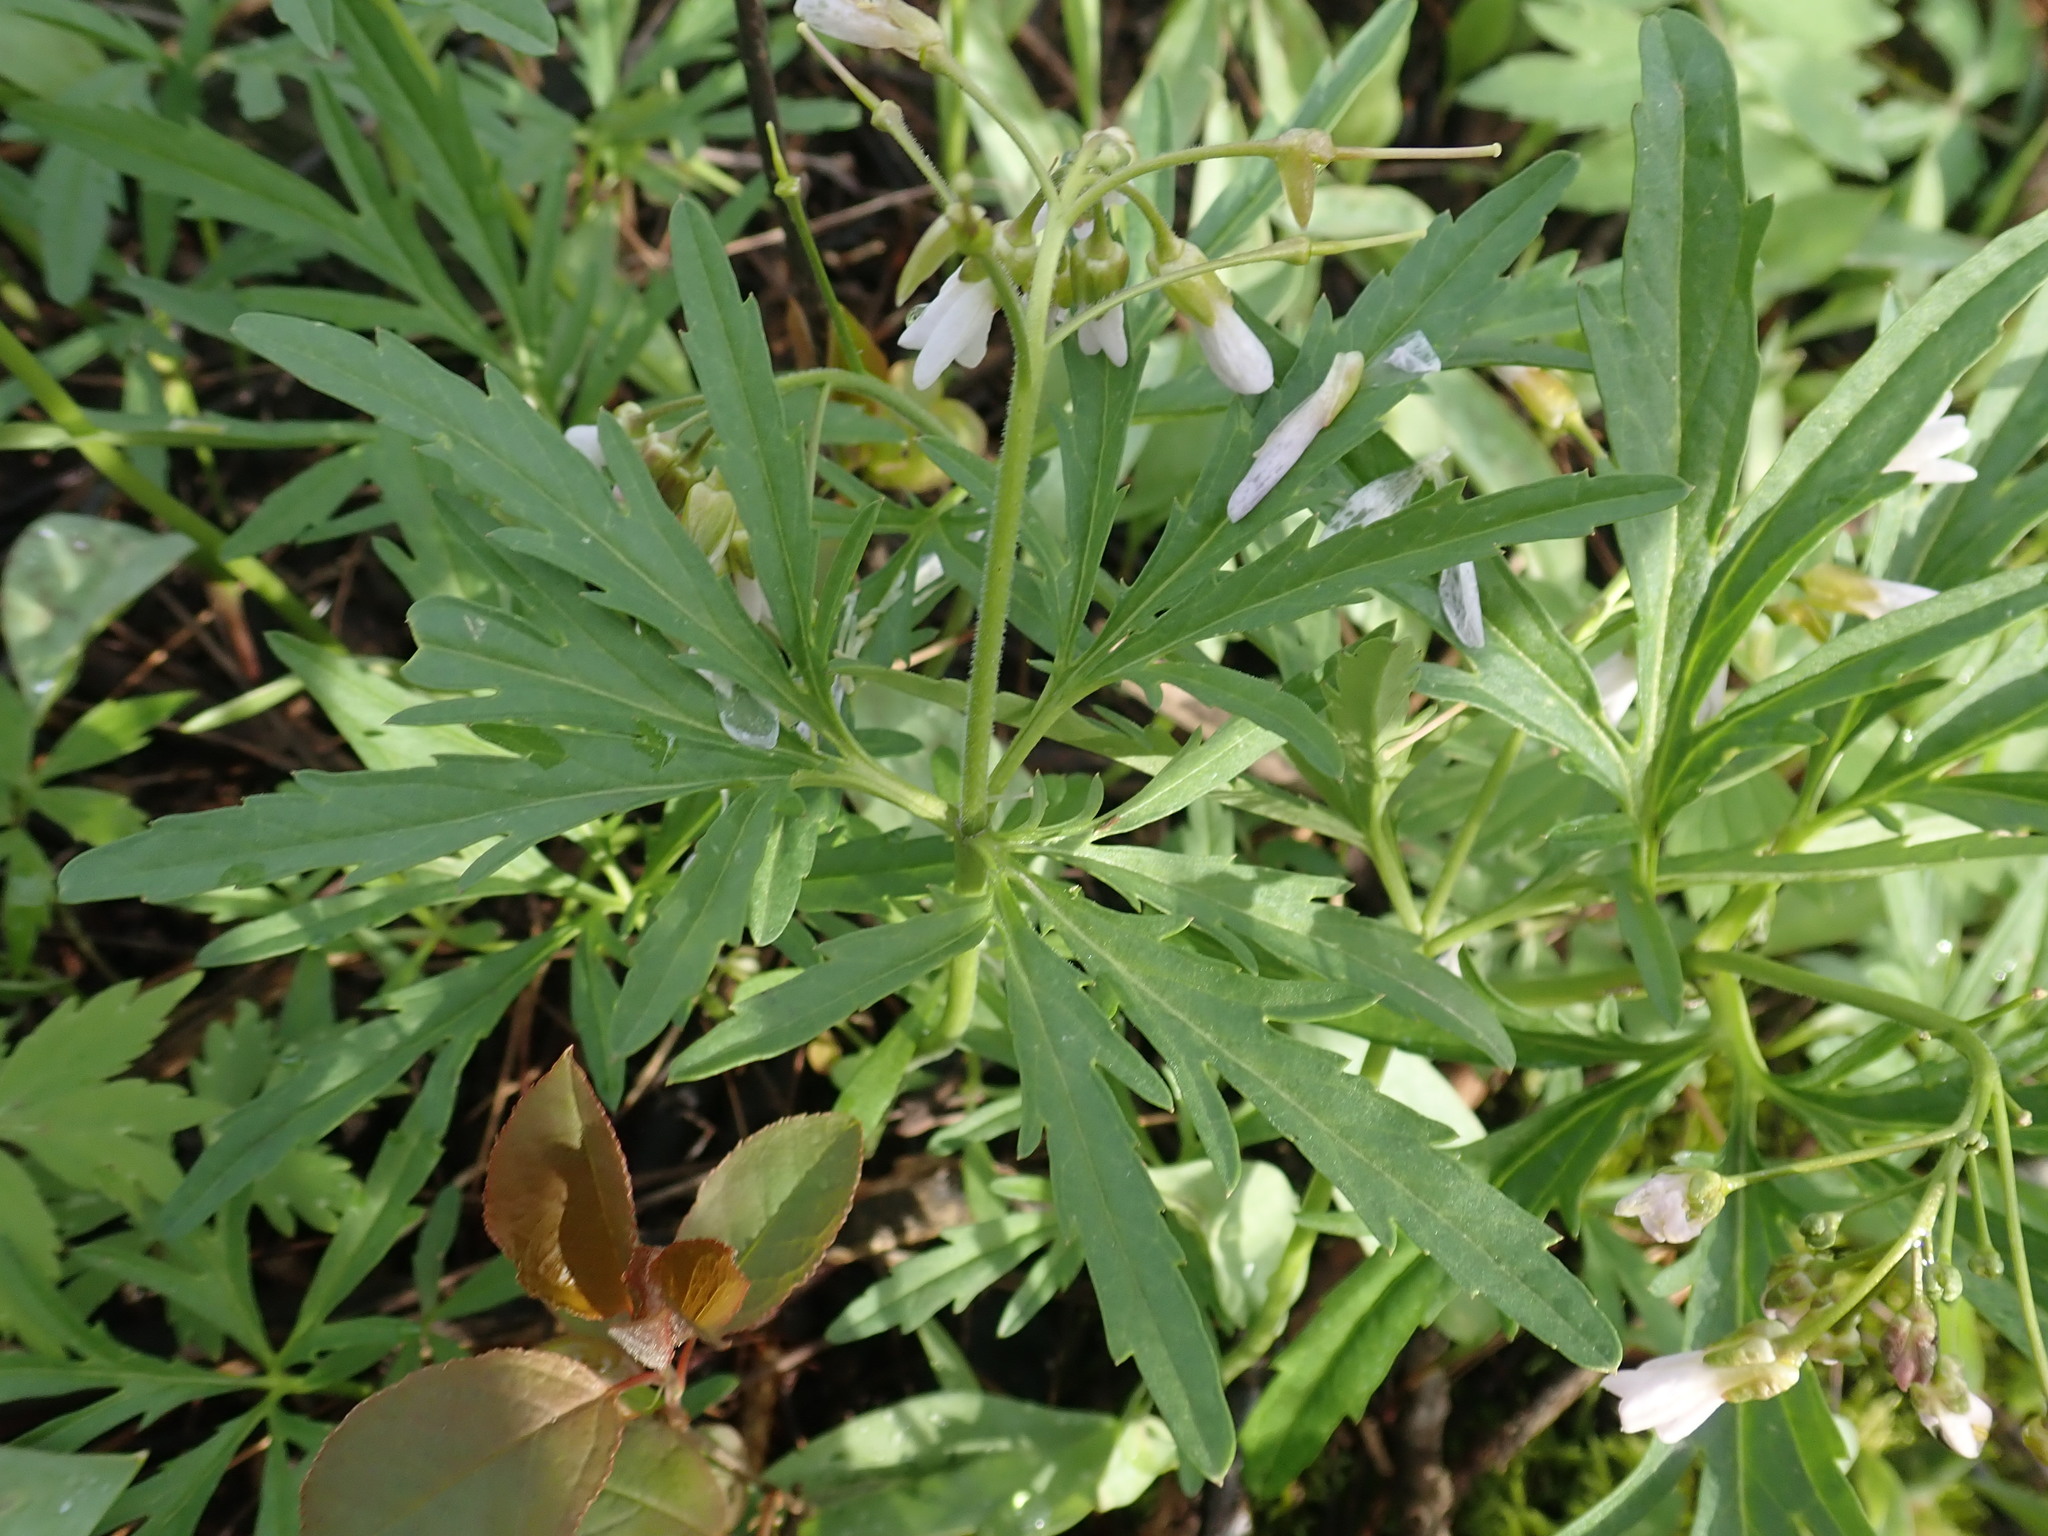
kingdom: Plantae
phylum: Tracheophyta
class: Magnoliopsida
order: Brassicales
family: Brassicaceae
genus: Cardamine
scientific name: Cardamine concatenata
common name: Cut-leaf toothcup
